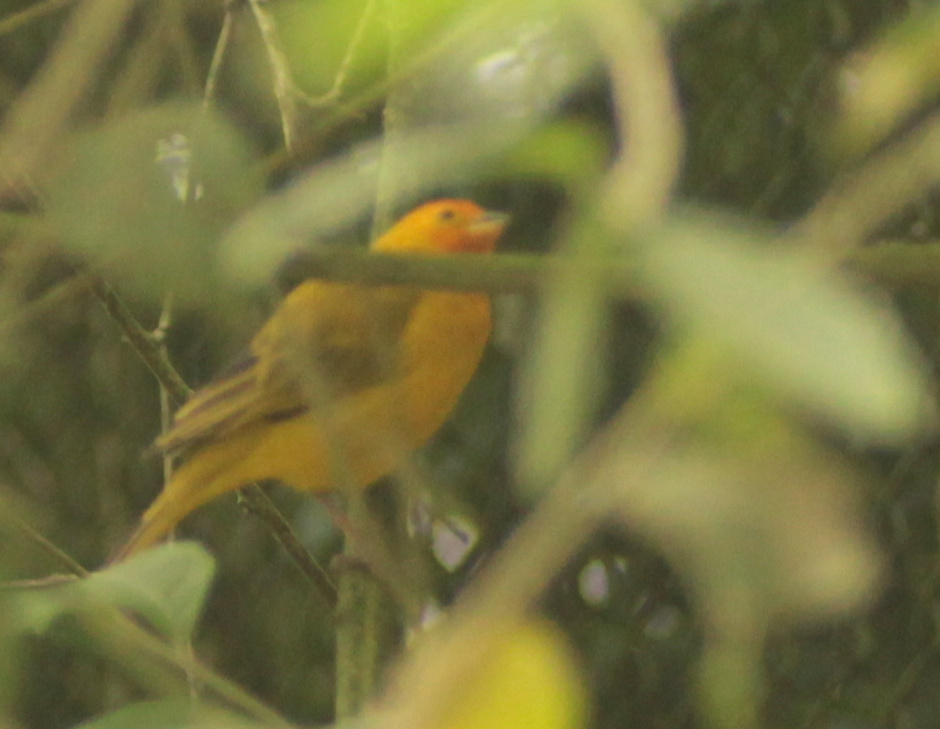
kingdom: Animalia
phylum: Chordata
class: Aves
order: Passeriformes
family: Thraupidae
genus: Sicalis
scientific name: Sicalis flaveola
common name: Saffron finch
